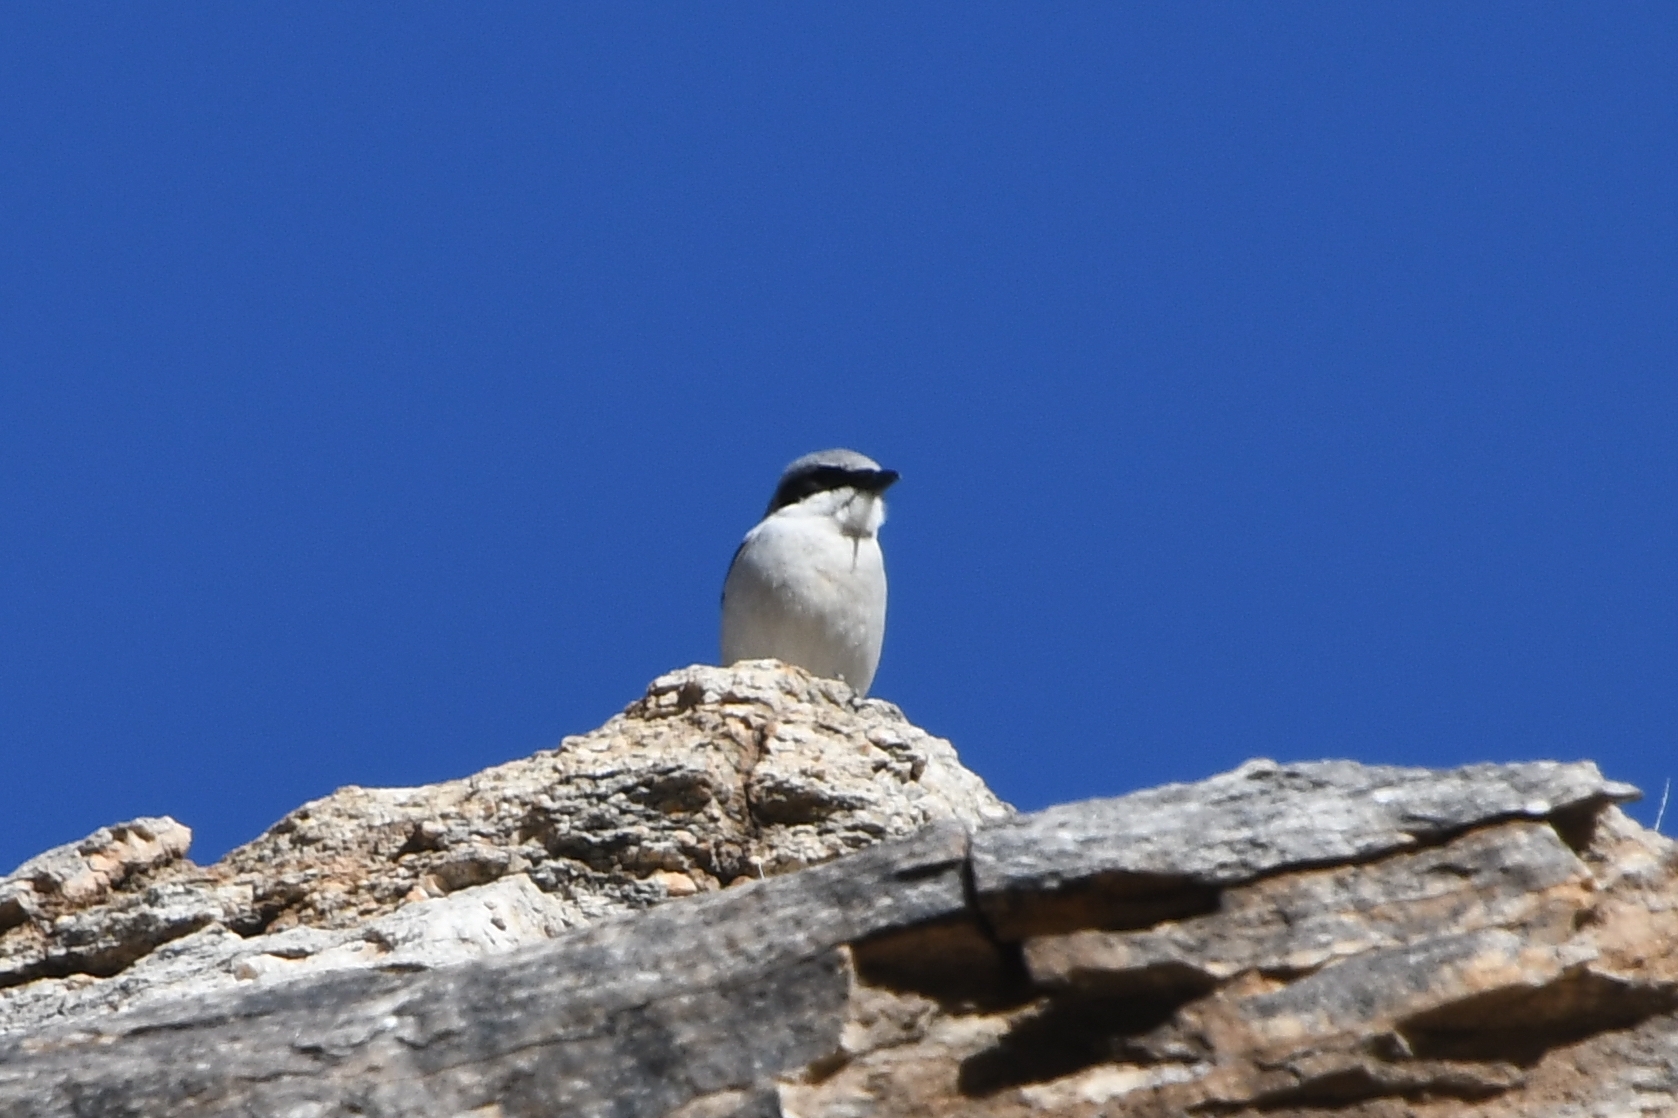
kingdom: Animalia
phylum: Chordata
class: Aves
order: Passeriformes
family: Laniidae
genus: Lanius
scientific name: Lanius ludovicianus
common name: Loggerhead shrike
